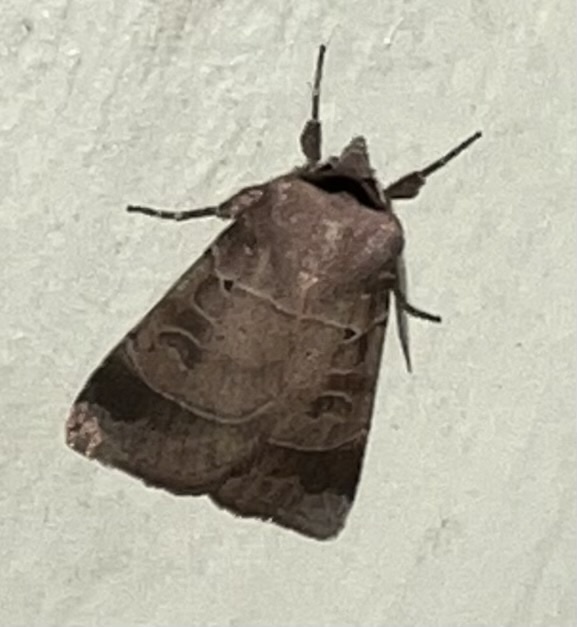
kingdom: Animalia
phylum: Arthropoda
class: Insecta
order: Lepidoptera
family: Noctuidae
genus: Agnorisma
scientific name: Agnorisma badinodis
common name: Pale-banded dart
